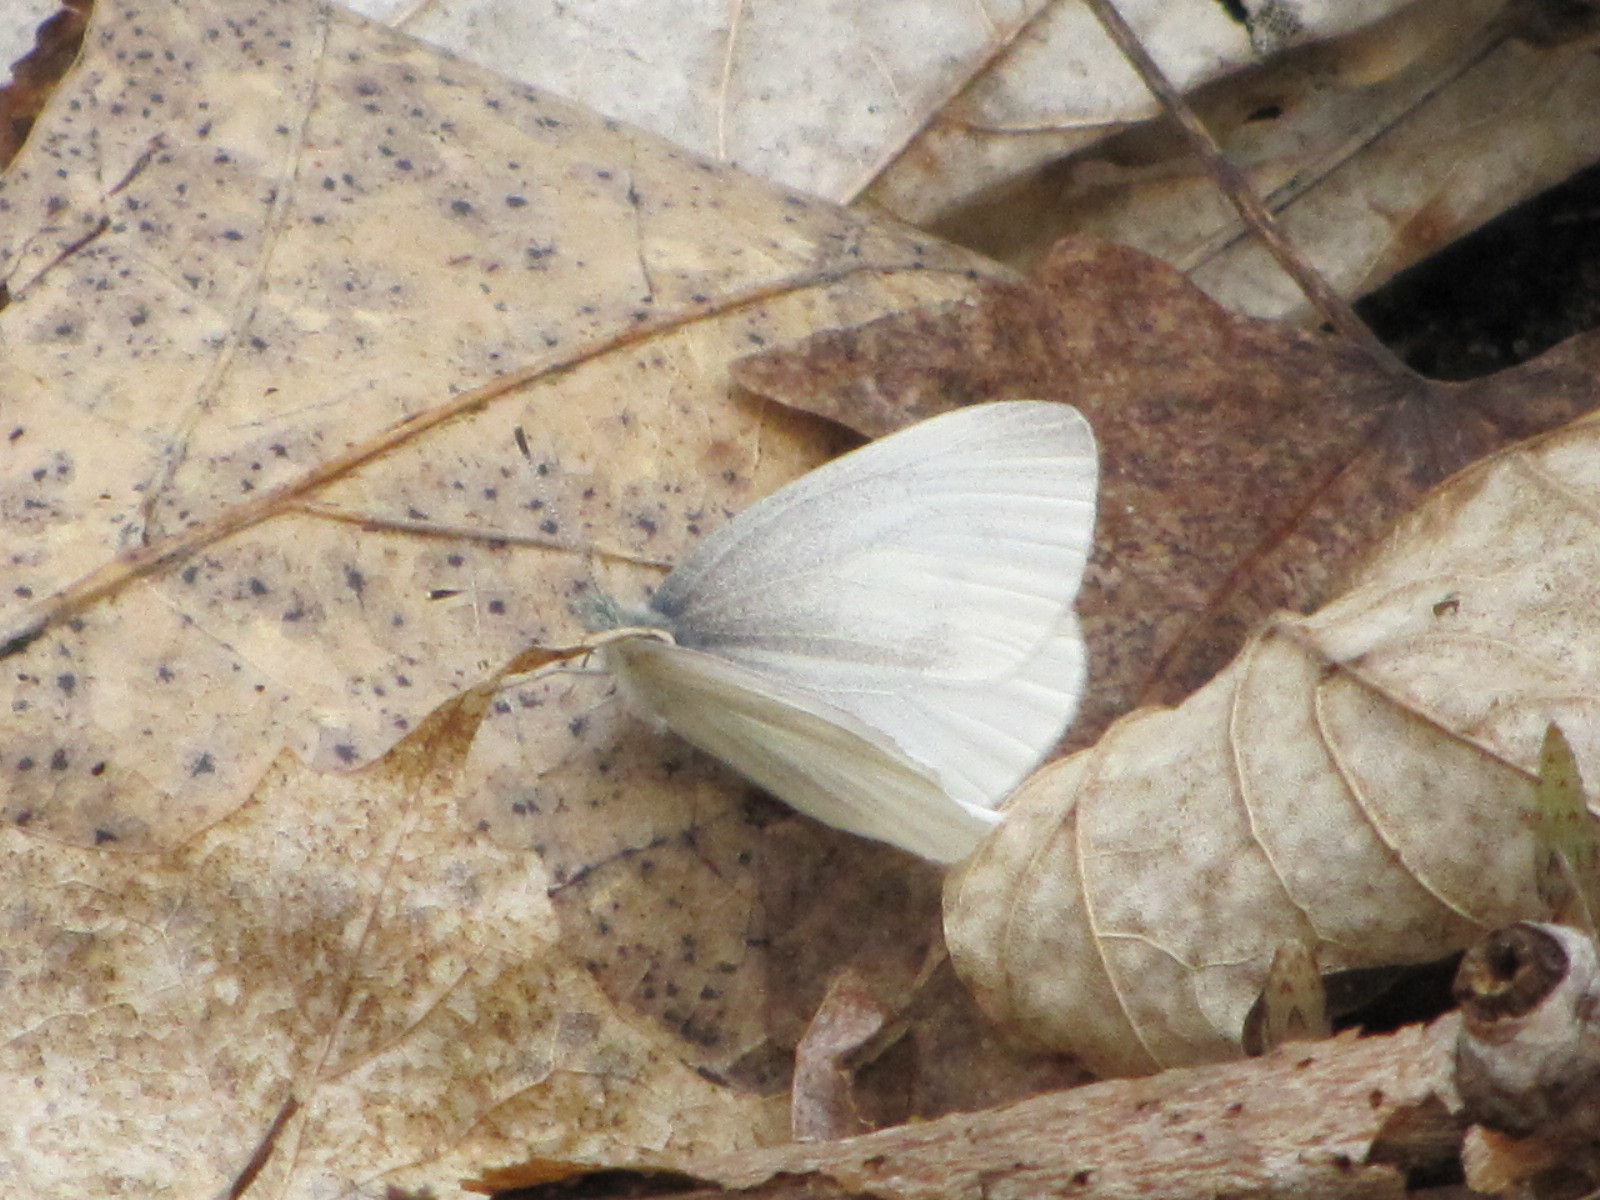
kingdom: Animalia
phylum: Arthropoda
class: Insecta
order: Lepidoptera
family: Pieridae
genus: Pieris
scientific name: Pieris virginiensis
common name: West virginia white
